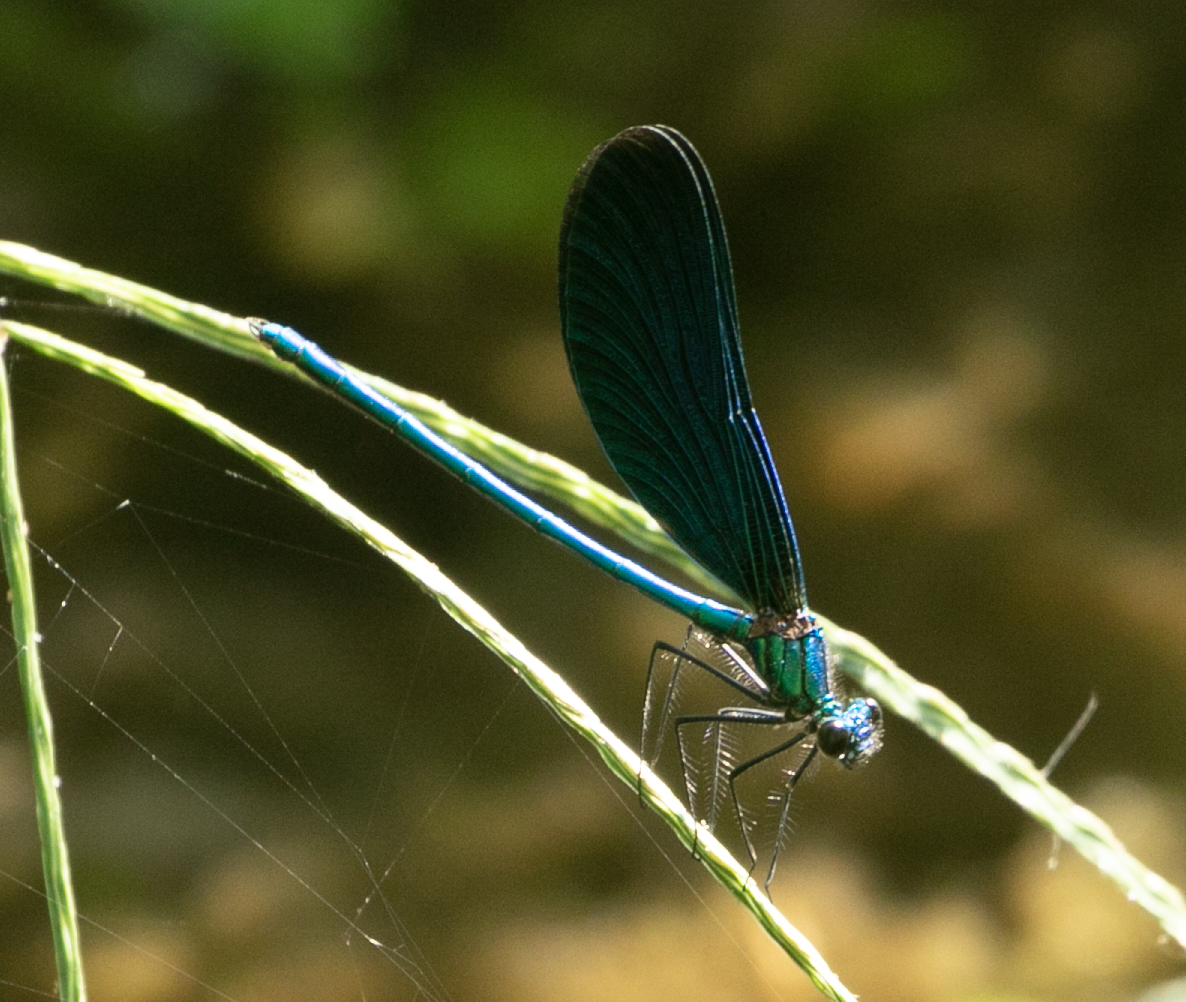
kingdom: Animalia
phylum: Arthropoda
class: Insecta
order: Odonata
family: Calopterygidae
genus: Calopteryx
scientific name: Calopteryx virgo
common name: Beautiful demoiselle
